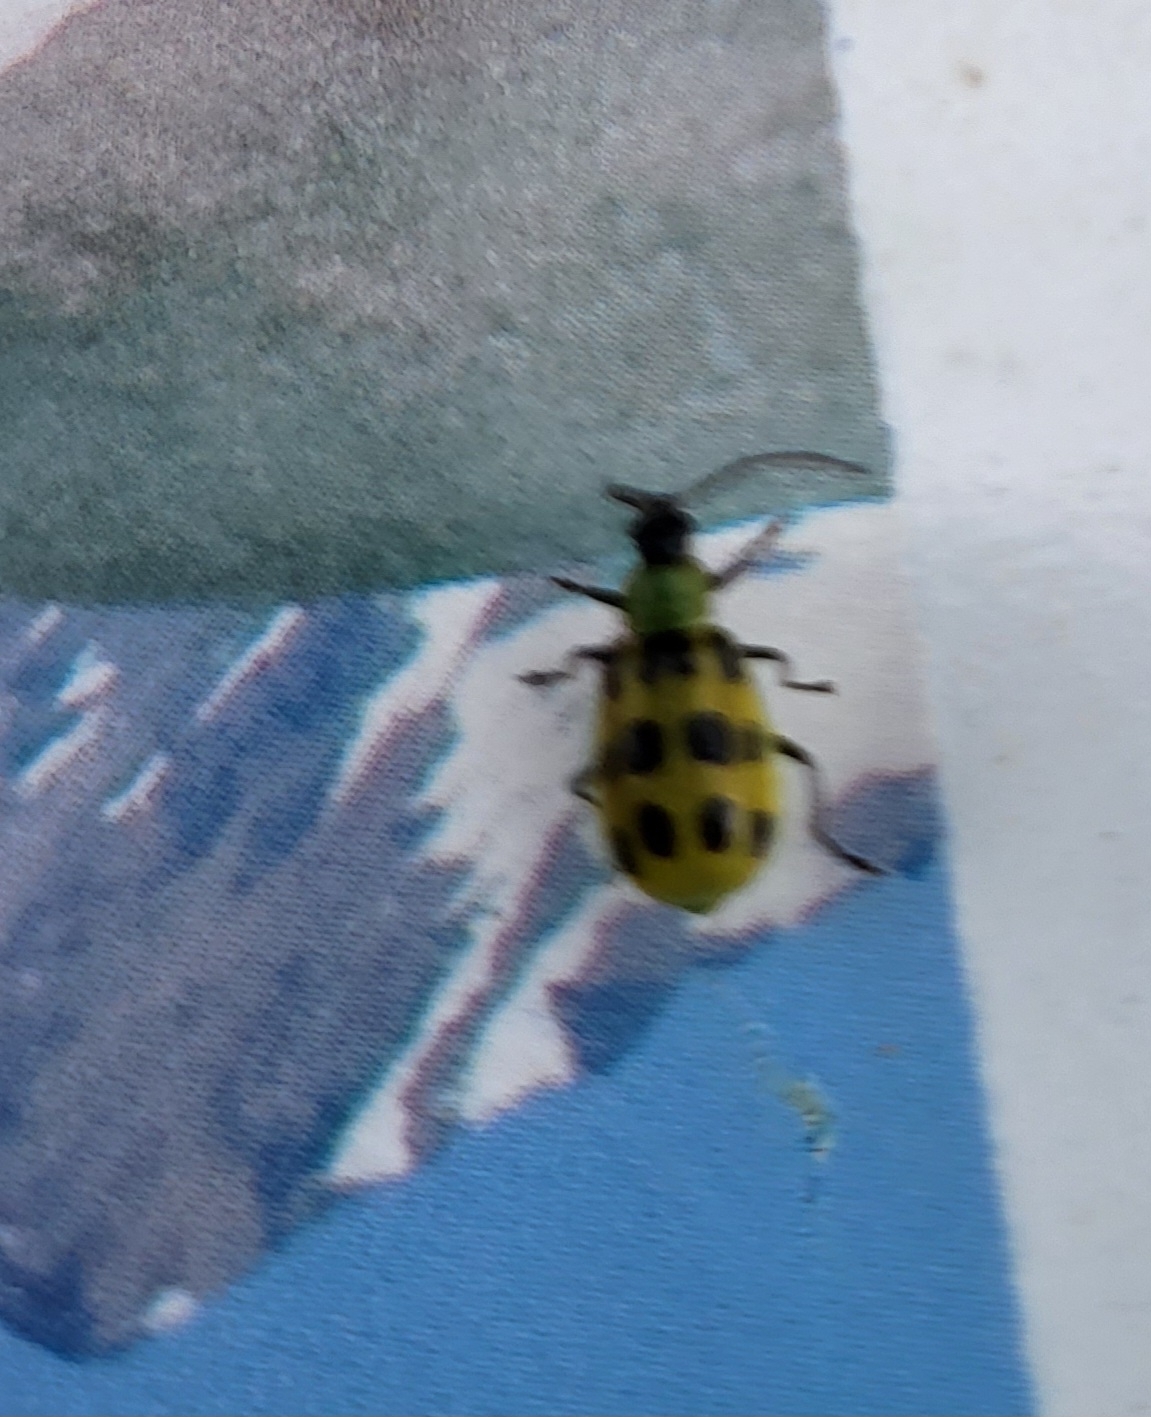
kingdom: Animalia
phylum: Arthropoda
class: Insecta
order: Coleoptera
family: Chrysomelidae
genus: Diabrotica
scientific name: Diabrotica undecimpunctata
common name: Spotted cucumber beetle
